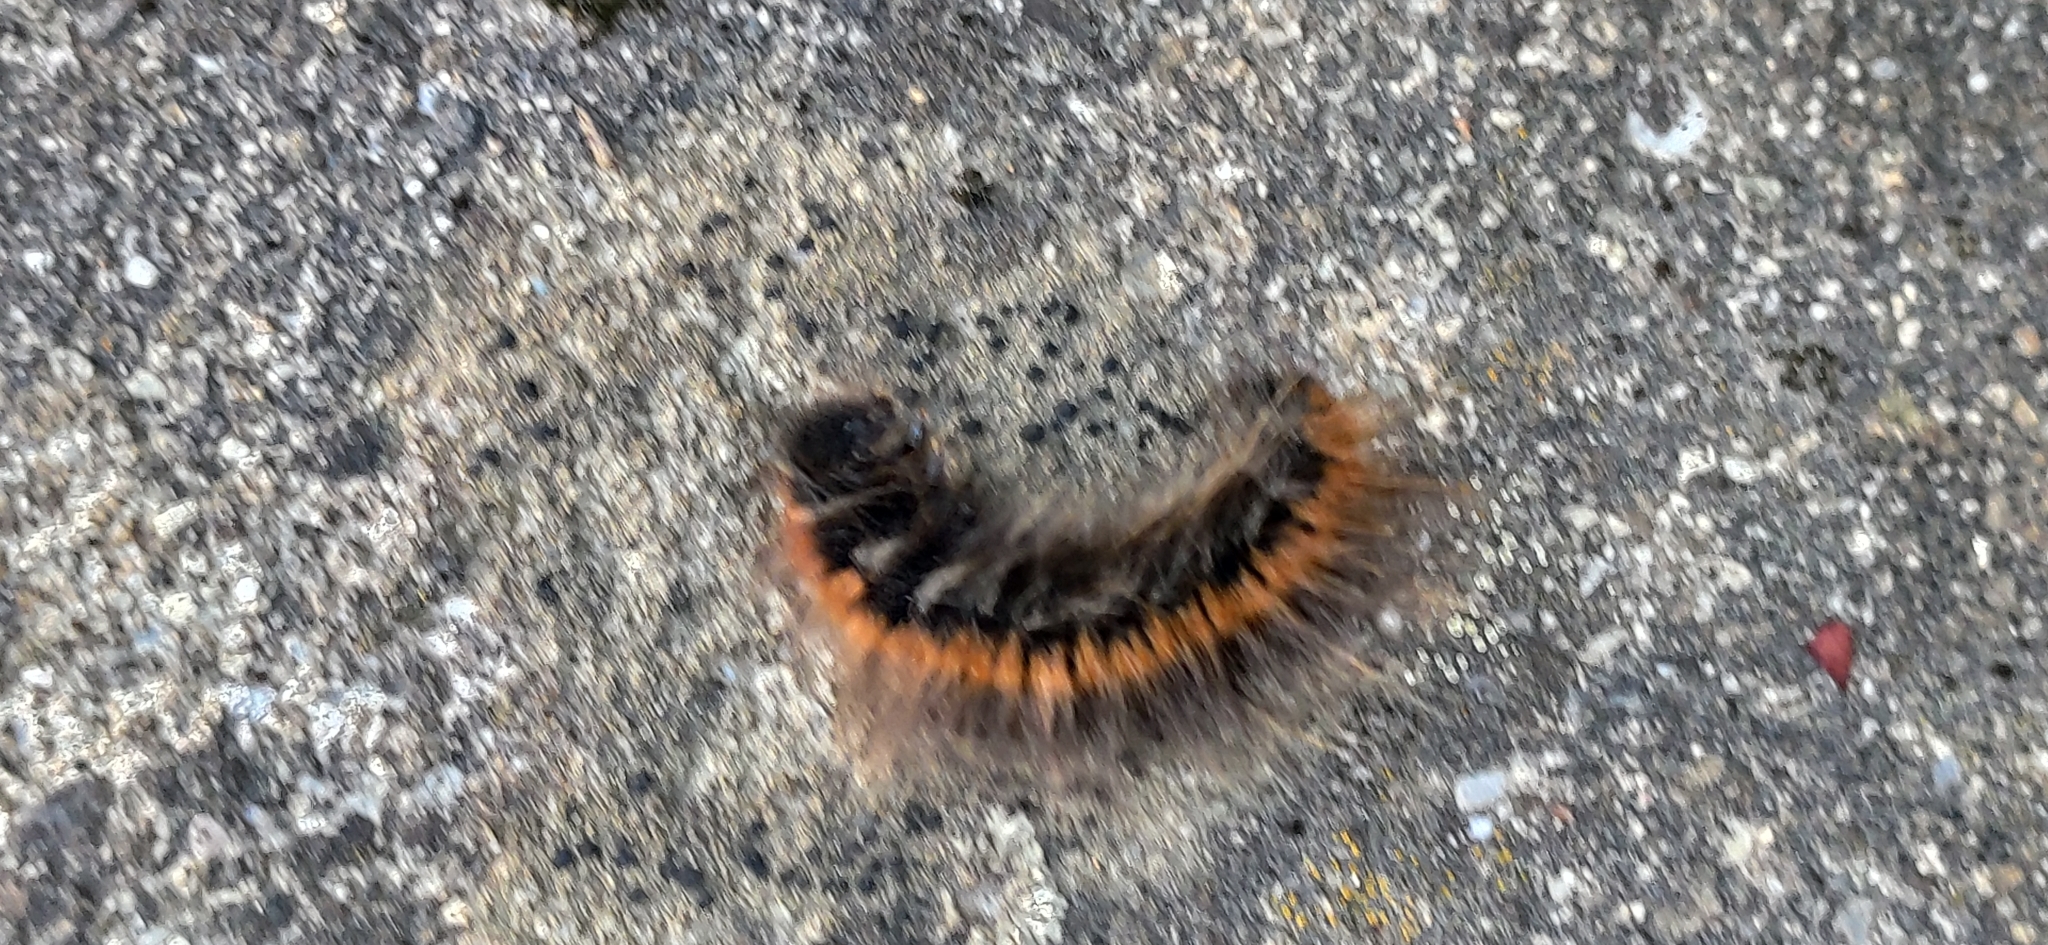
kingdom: Animalia
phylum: Arthropoda
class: Insecta
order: Lepidoptera
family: Lasiocampidae
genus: Macrothylacia
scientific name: Macrothylacia rubi
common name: Fox moth
